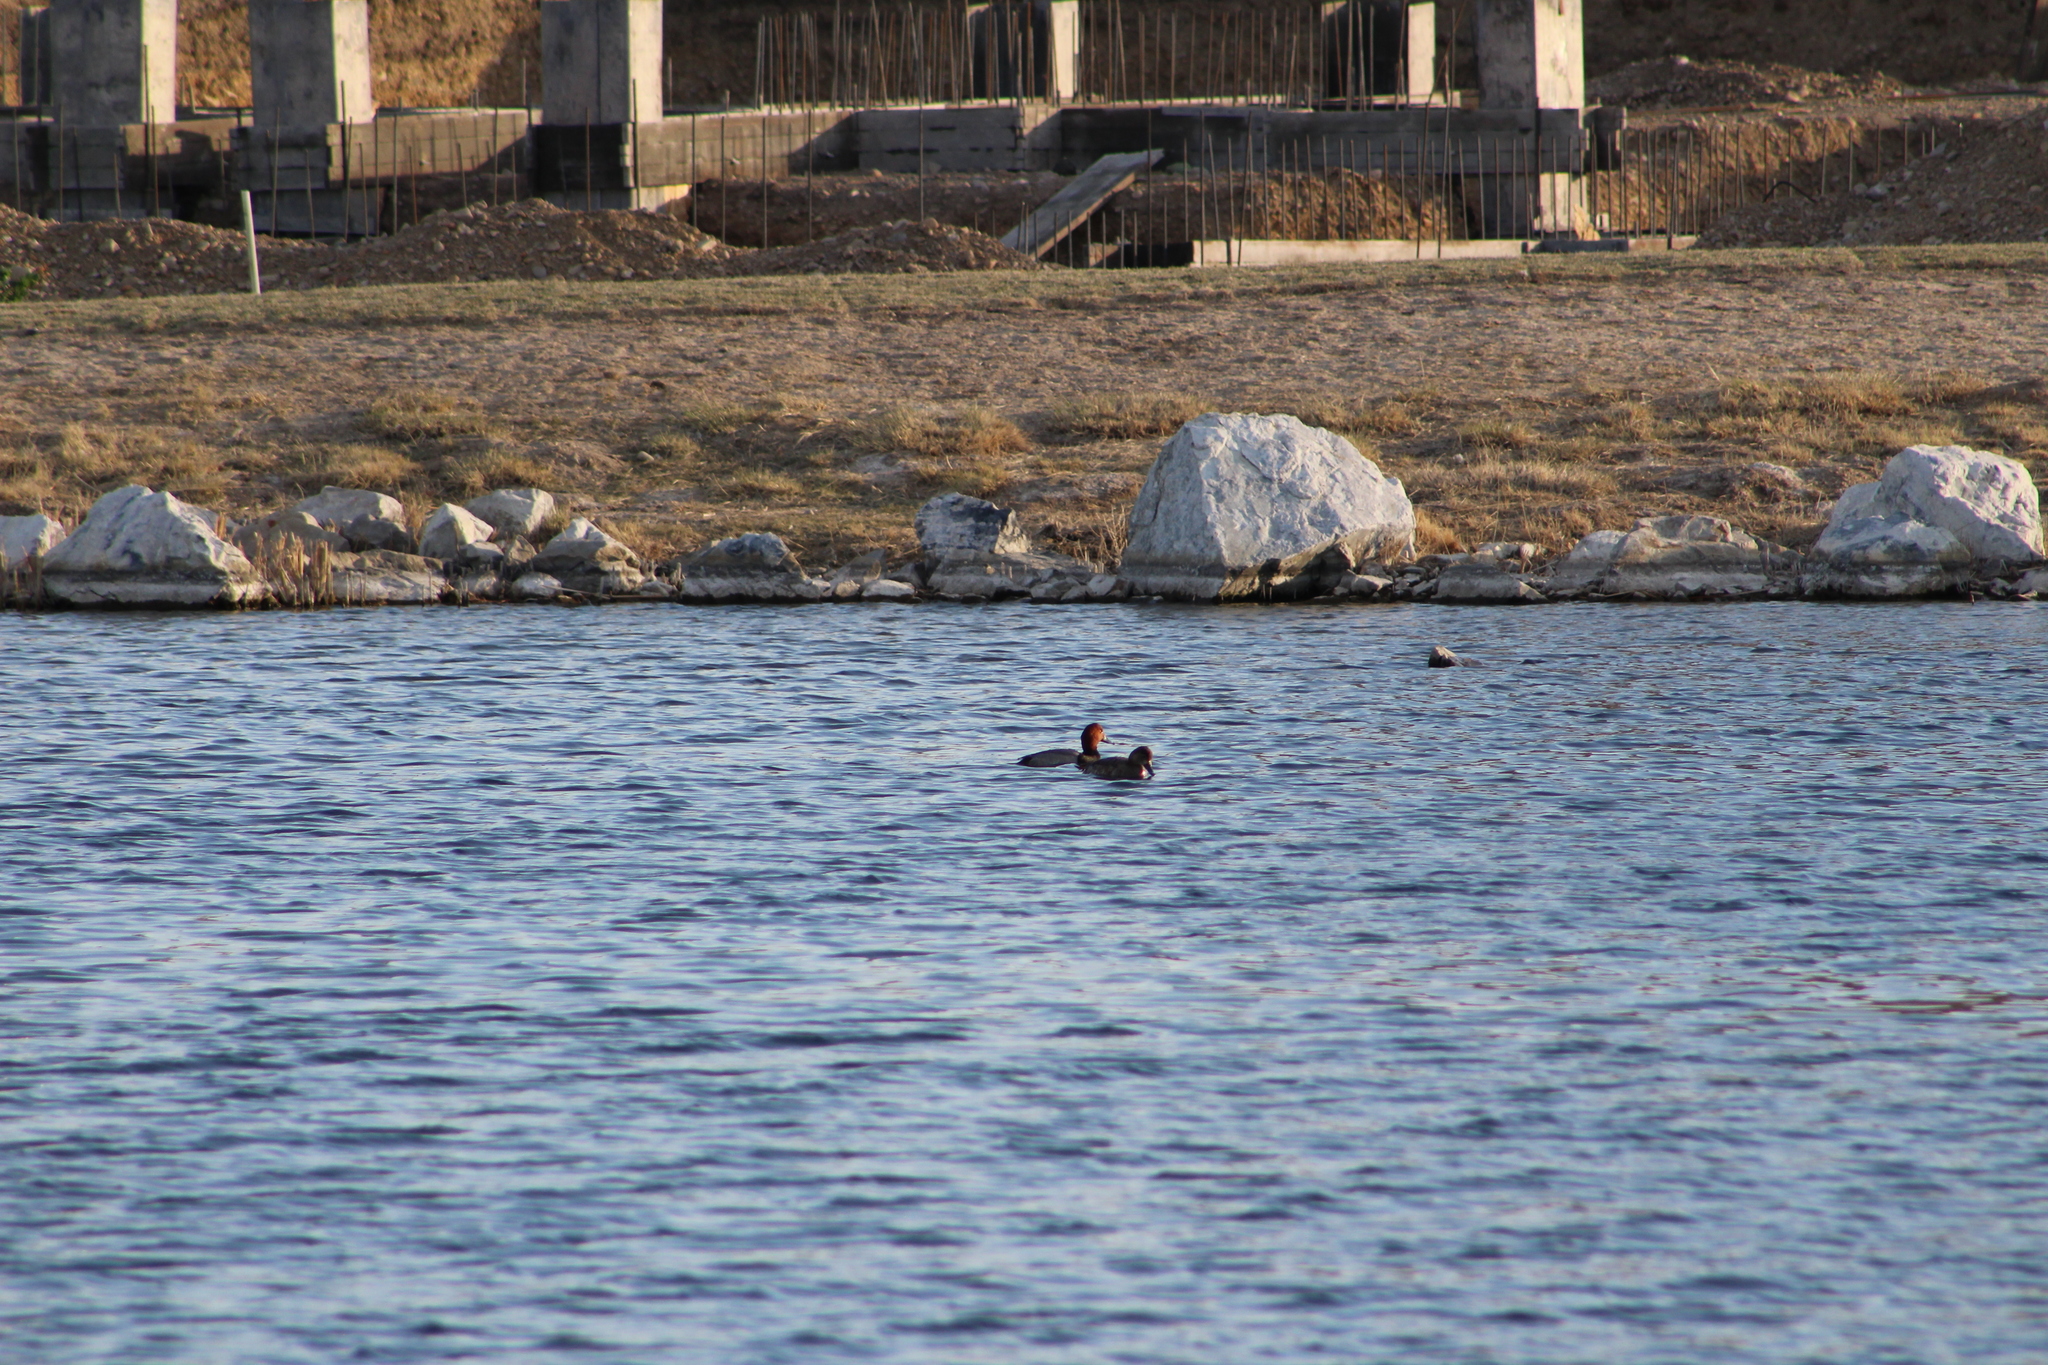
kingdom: Animalia
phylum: Chordata
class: Aves
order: Anseriformes
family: Anatidae
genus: Aythya
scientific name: Aythya americana
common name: Redhead
